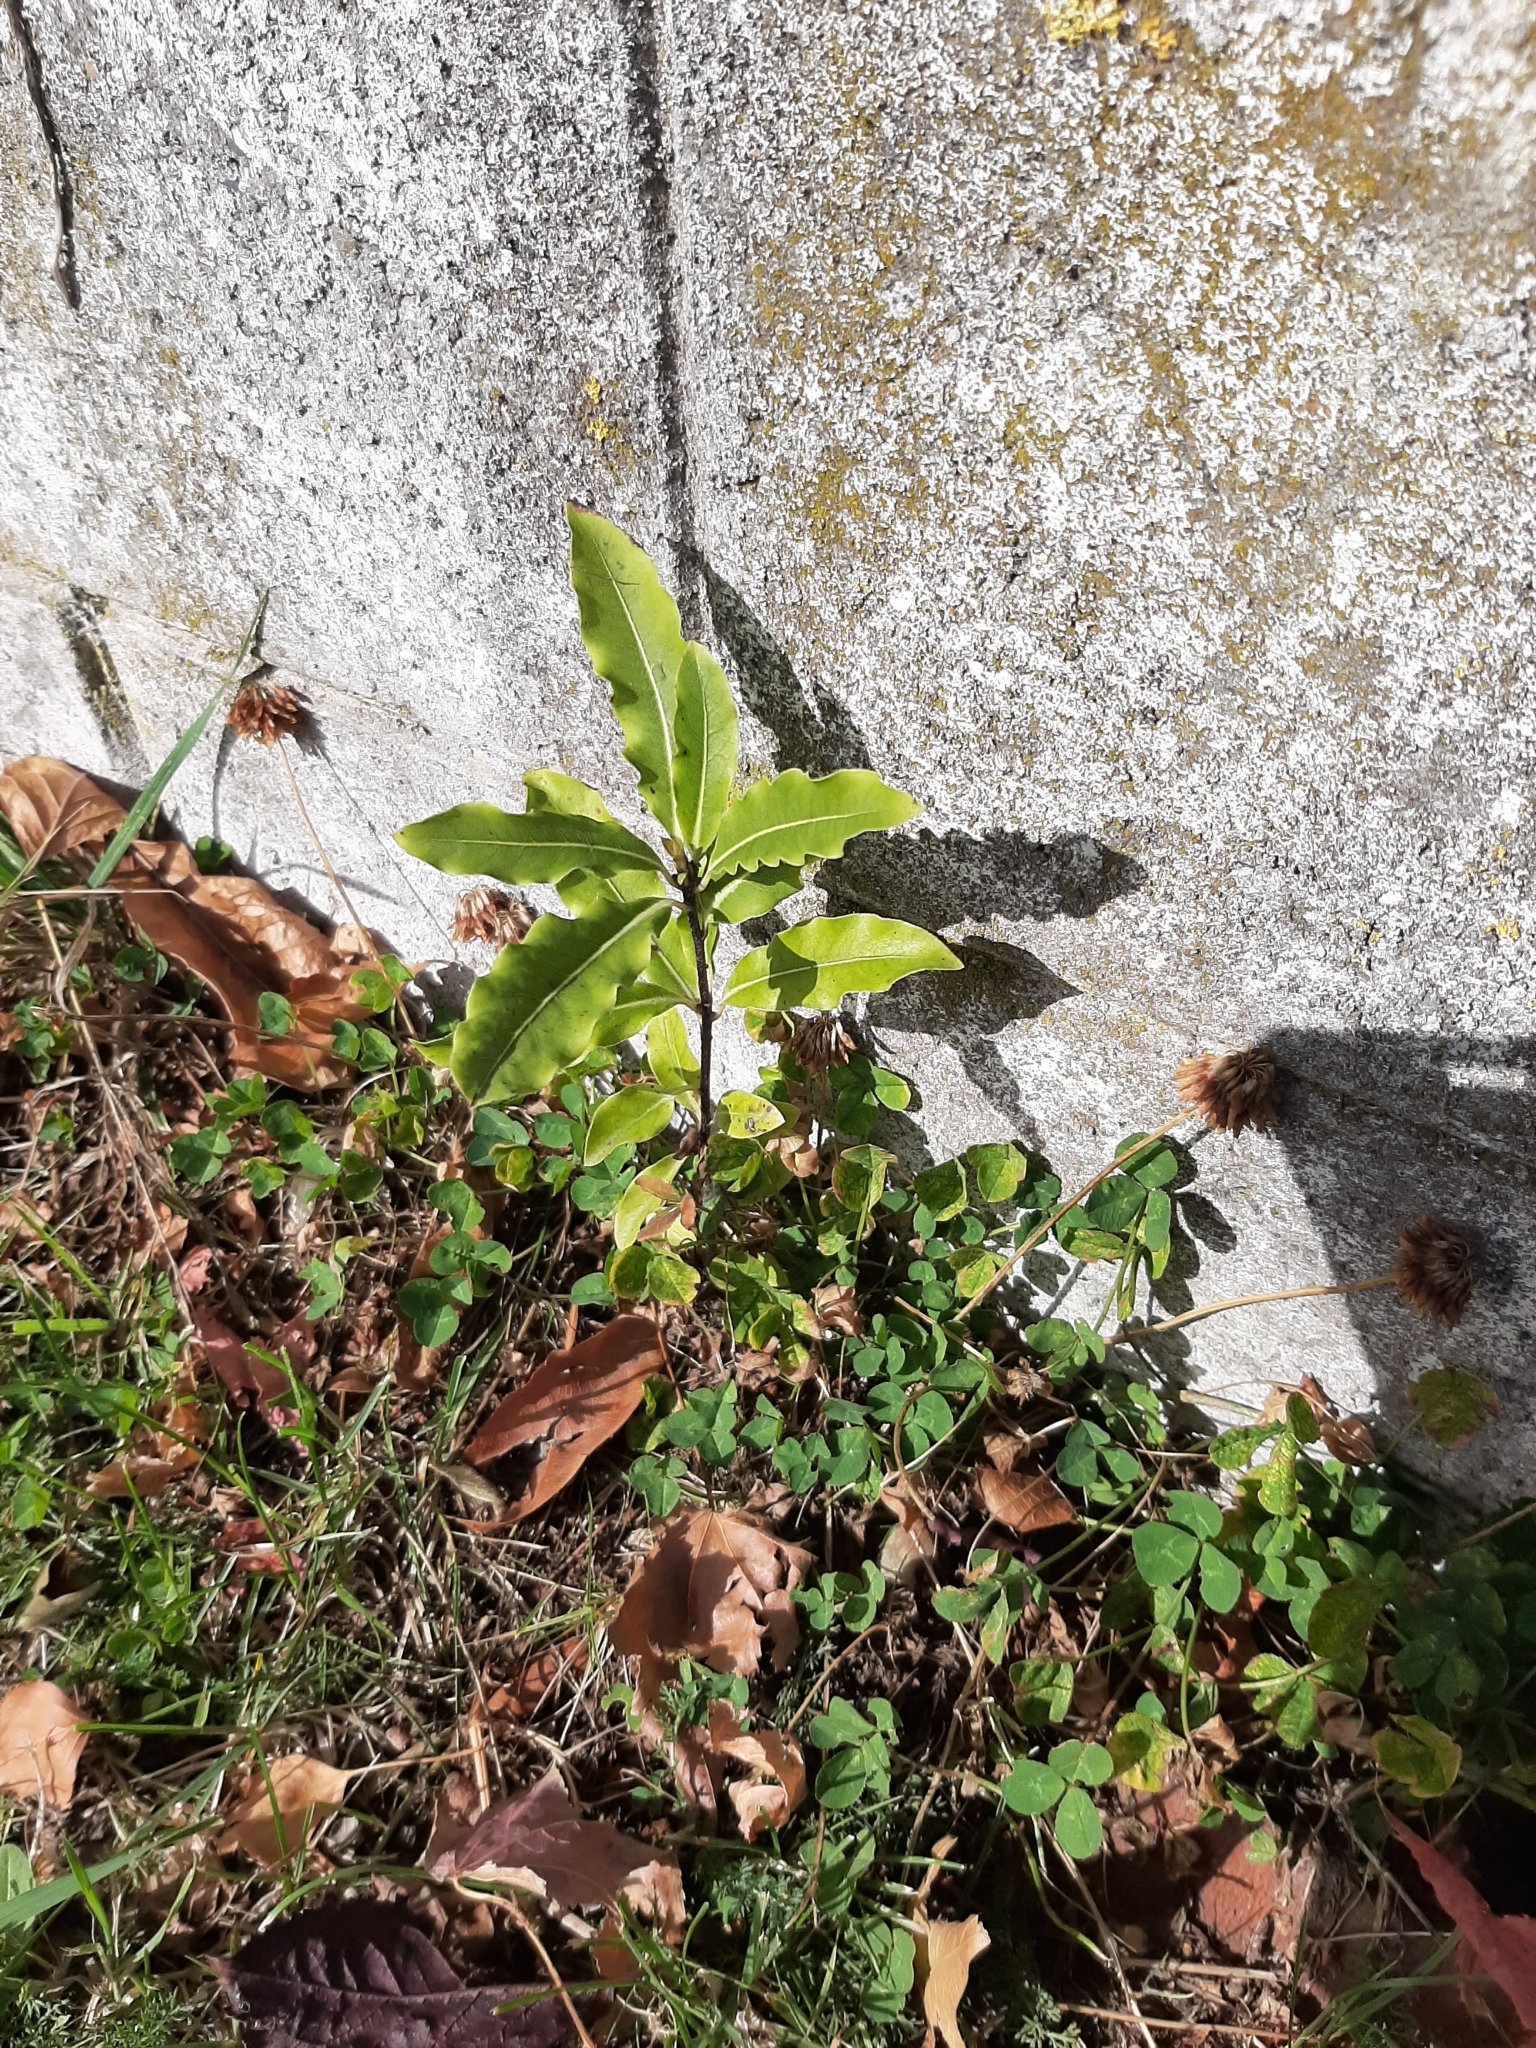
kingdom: Plantae
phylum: Tracheophyta
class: Magnoliopsida
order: Apiales
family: Pittosporaceae
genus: Pittosporum
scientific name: Pittosporum eugenioides
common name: Lemonwood
